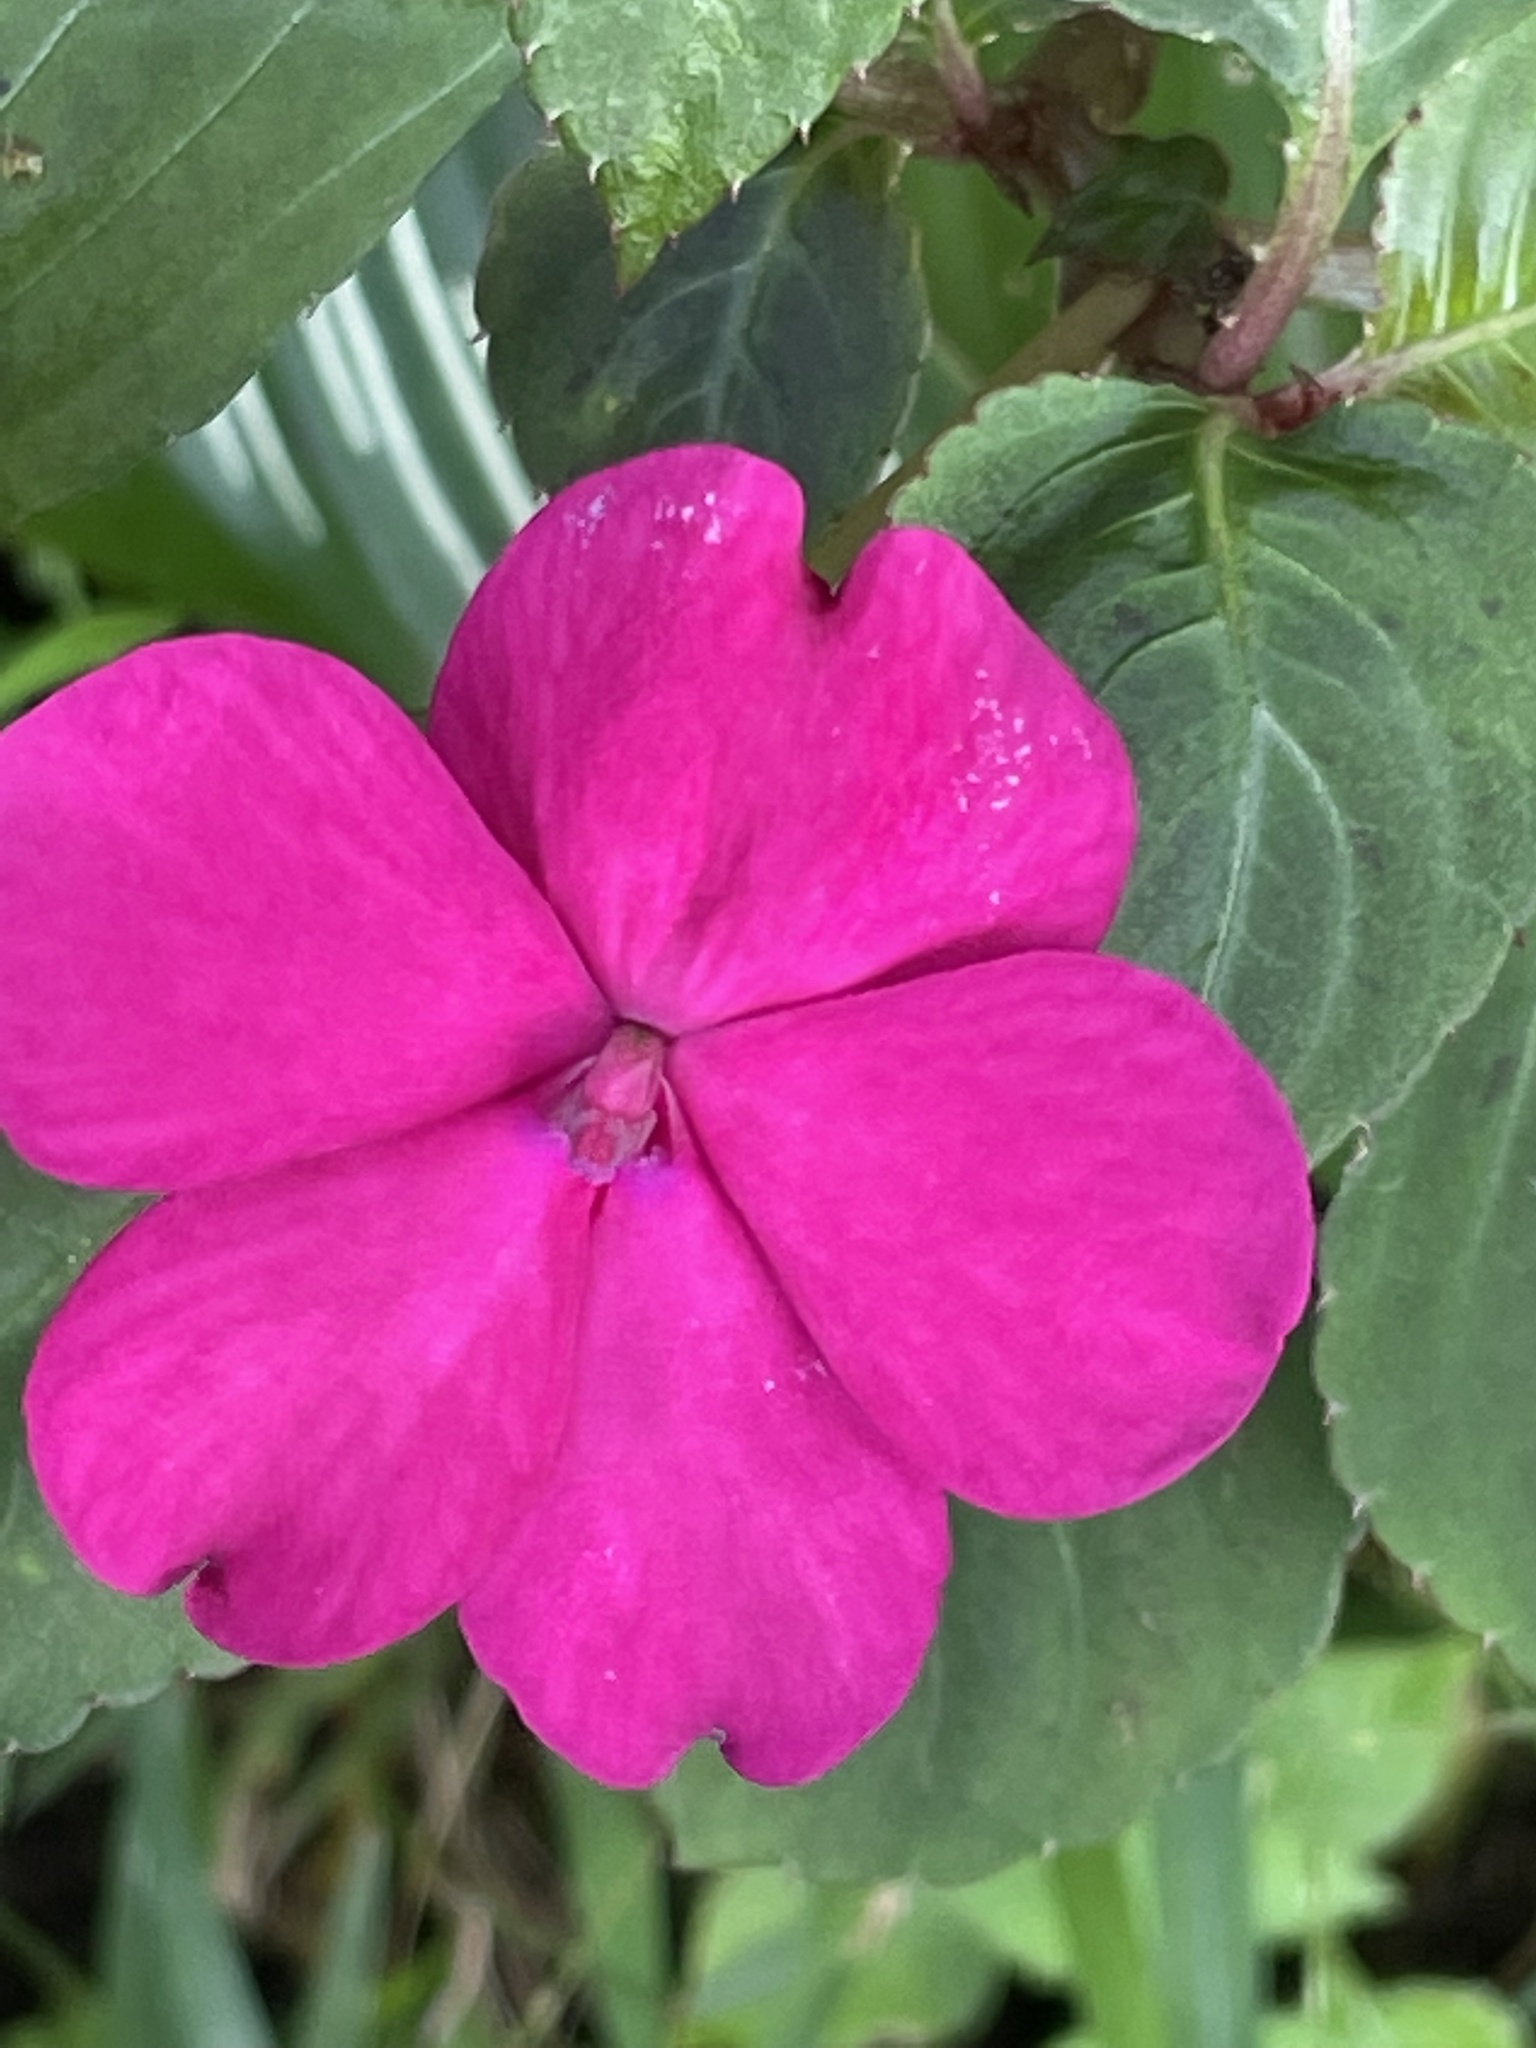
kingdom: Plantae
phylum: Tracheophyta
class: Magnoliopsida
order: Ericales
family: Balsaminaceae
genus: Impatiens
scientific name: Impatiens walleriana
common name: Buzzy lizzy
